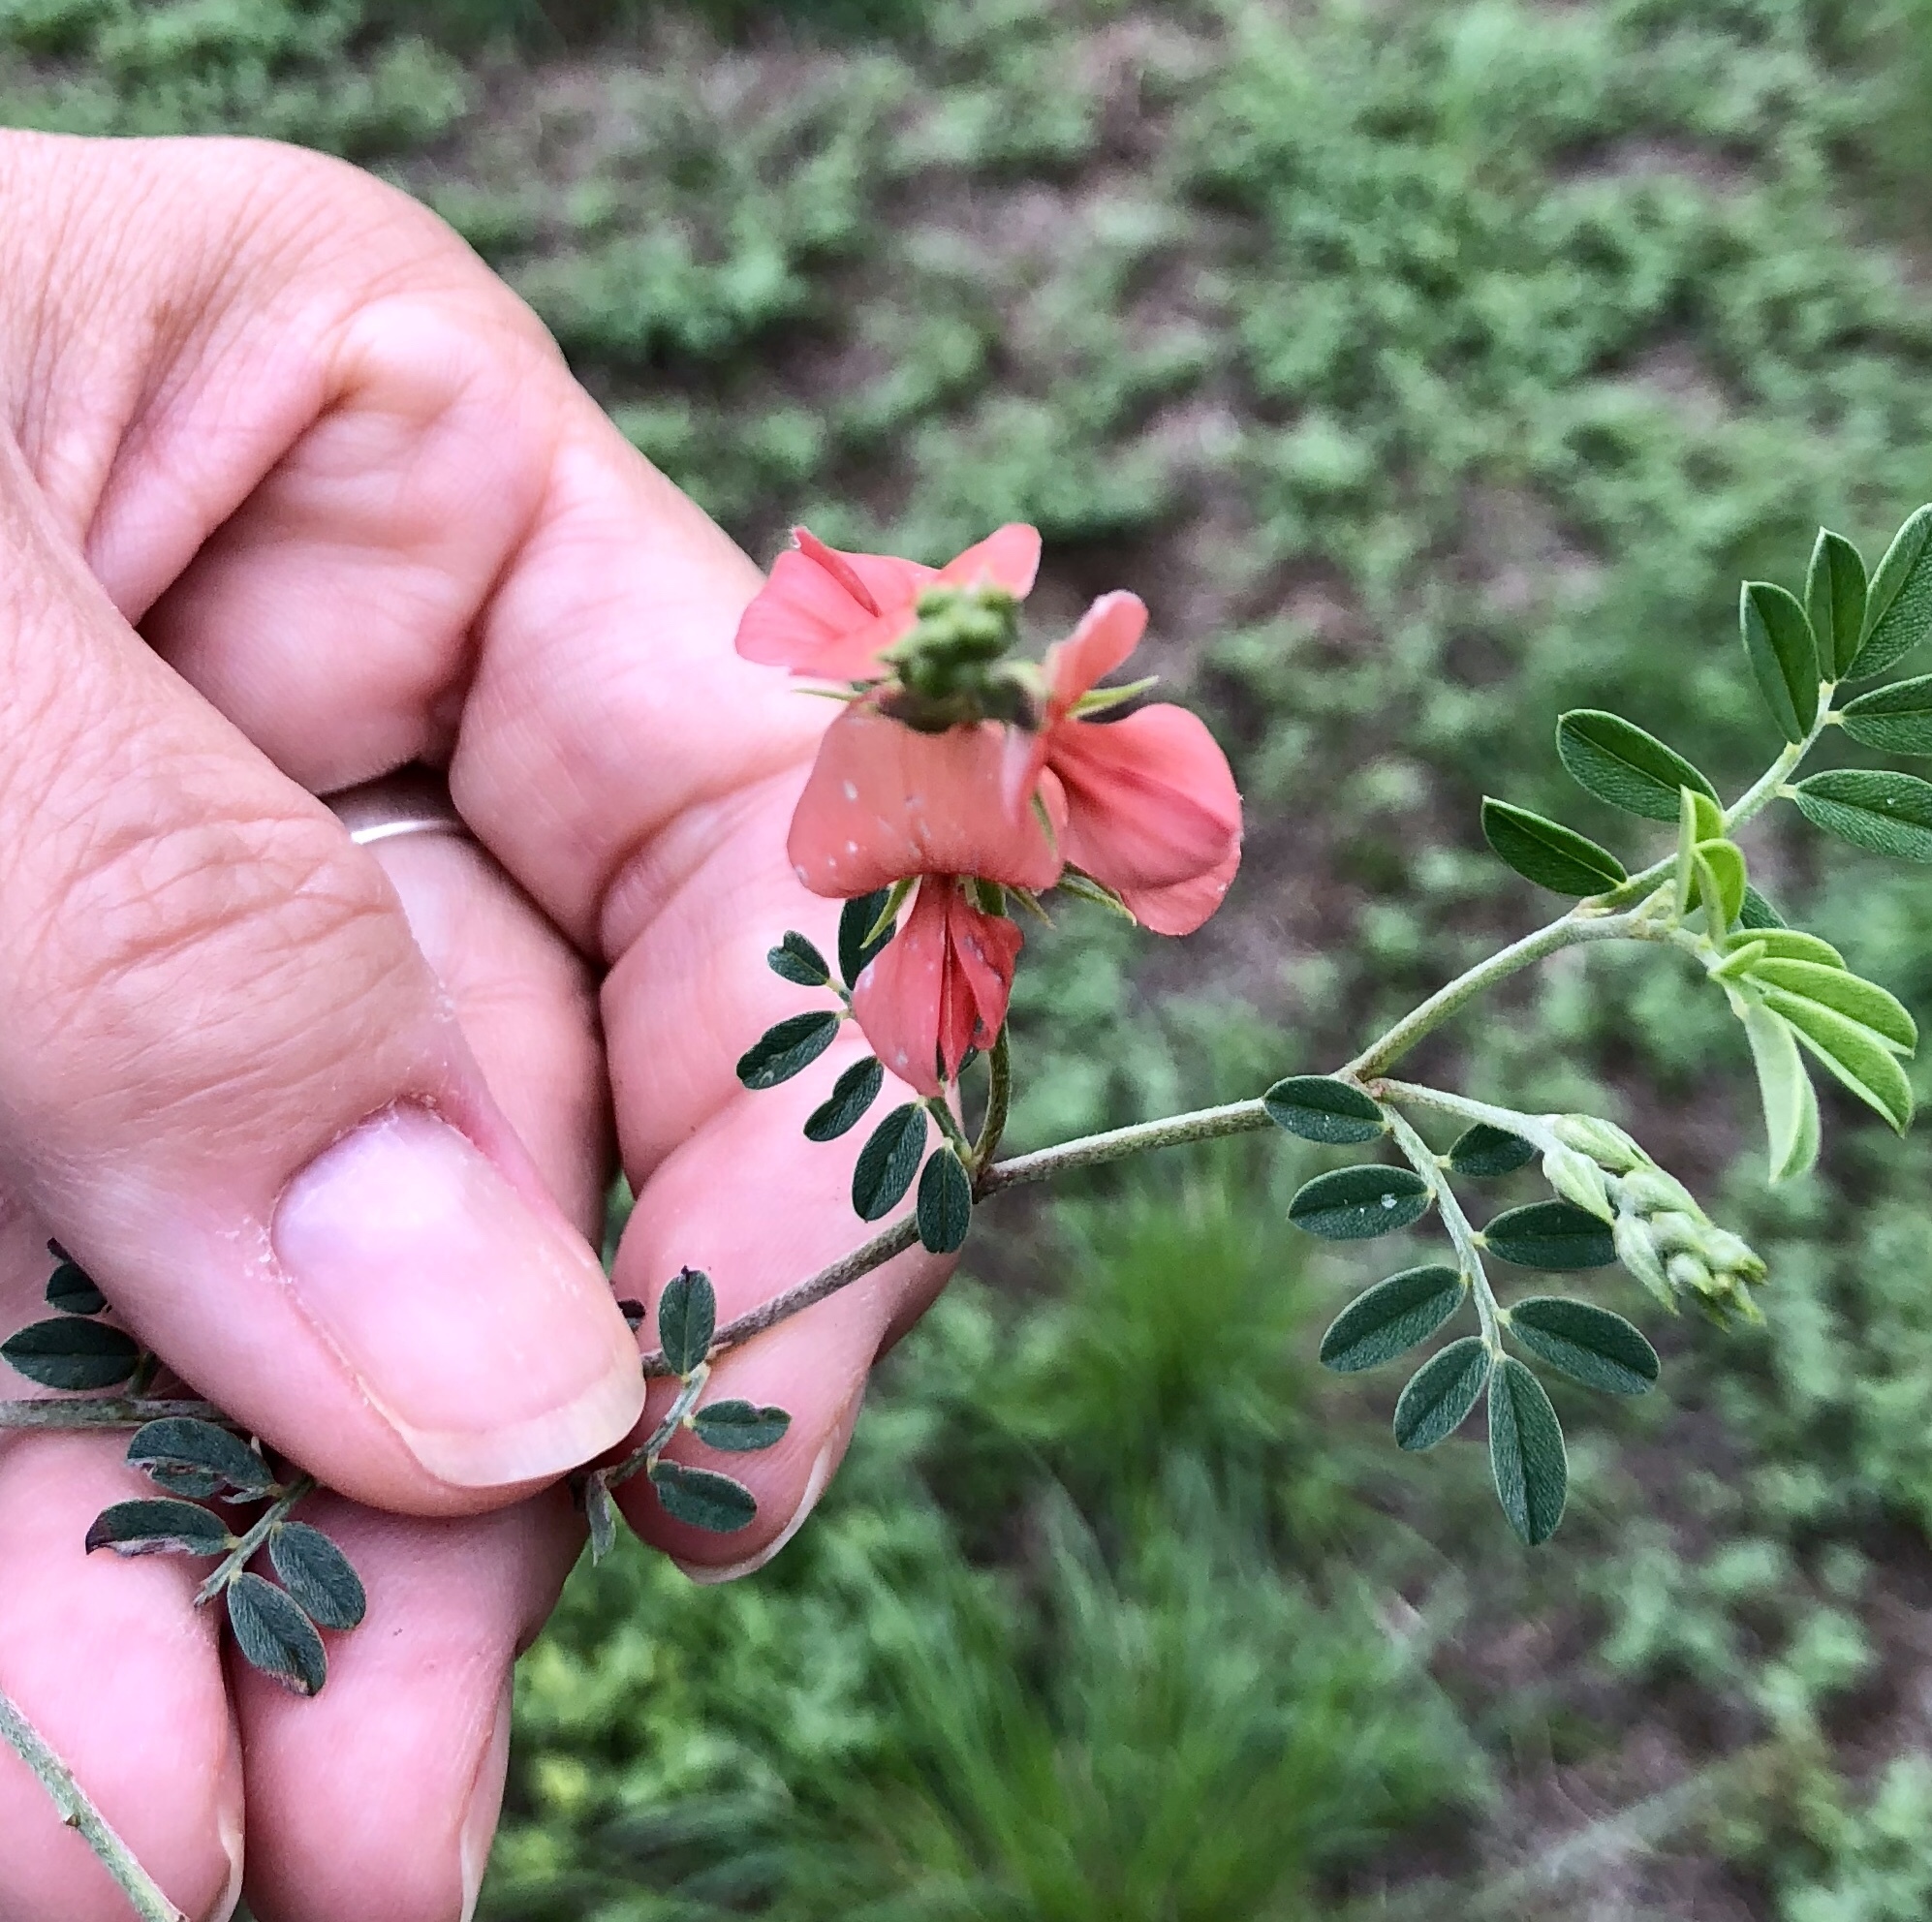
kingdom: Plantae
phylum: Tracheophyta
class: Magnoliopsida
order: Fabales
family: Fabaceae
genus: Indigofera
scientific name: Indigofera miniata
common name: Coast indigo
